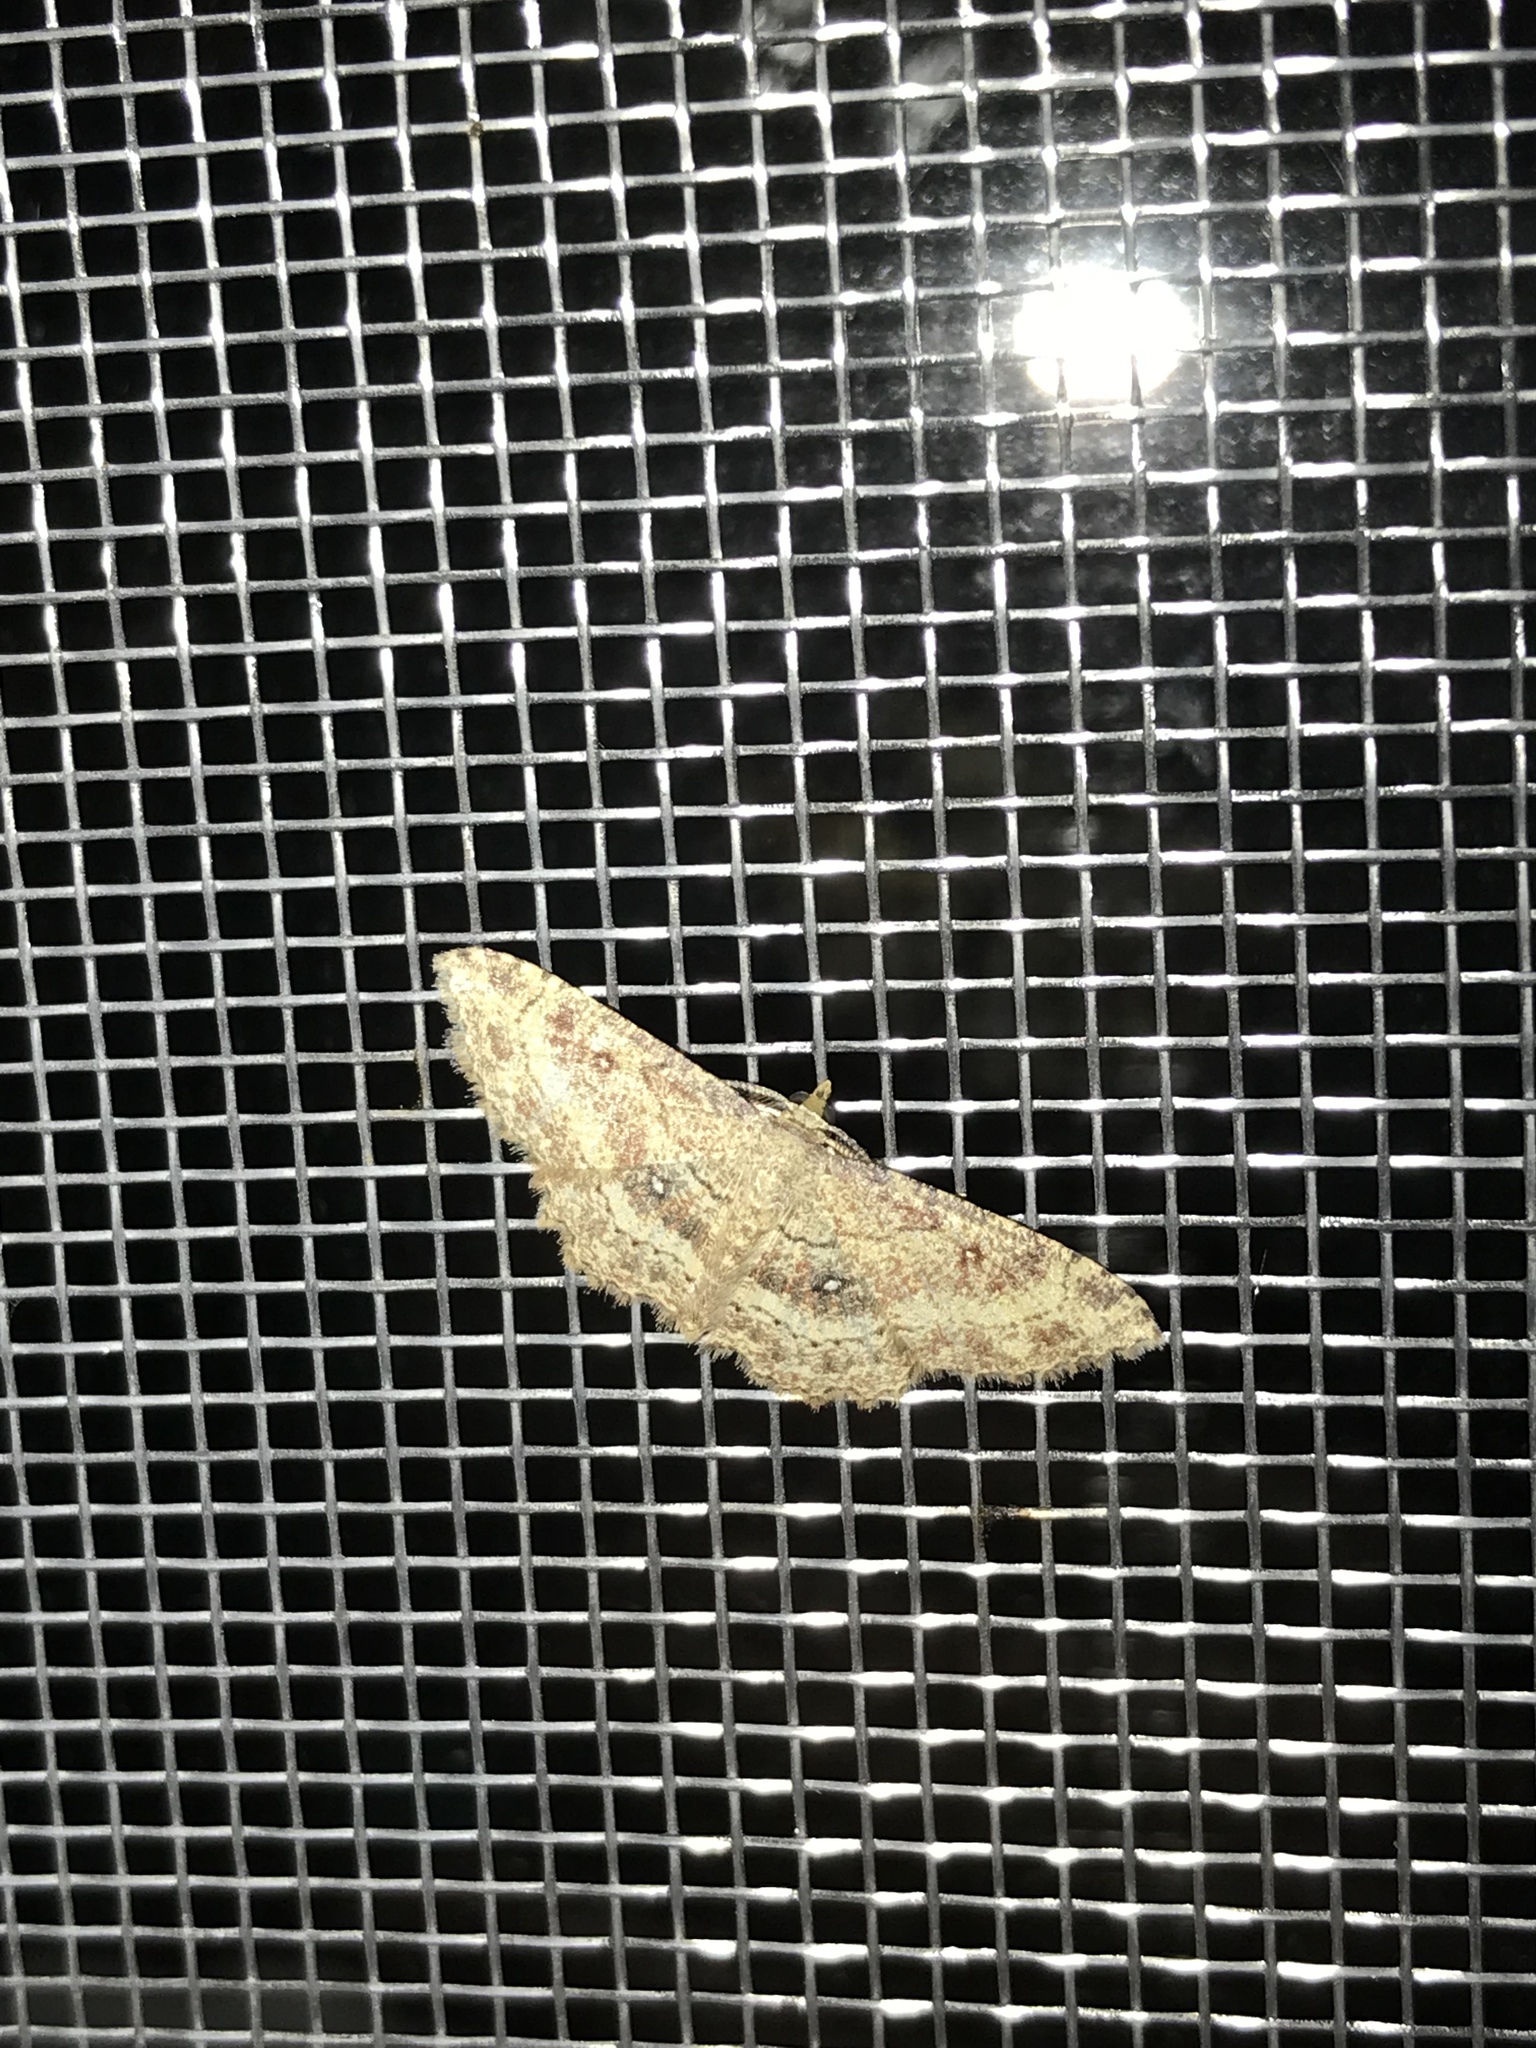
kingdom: Animalia
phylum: Arthropoda
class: Insecta
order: Lepidoptera
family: Geometridae
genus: Cyclophora
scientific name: Cyclophora nanaria
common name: Cankerworm
